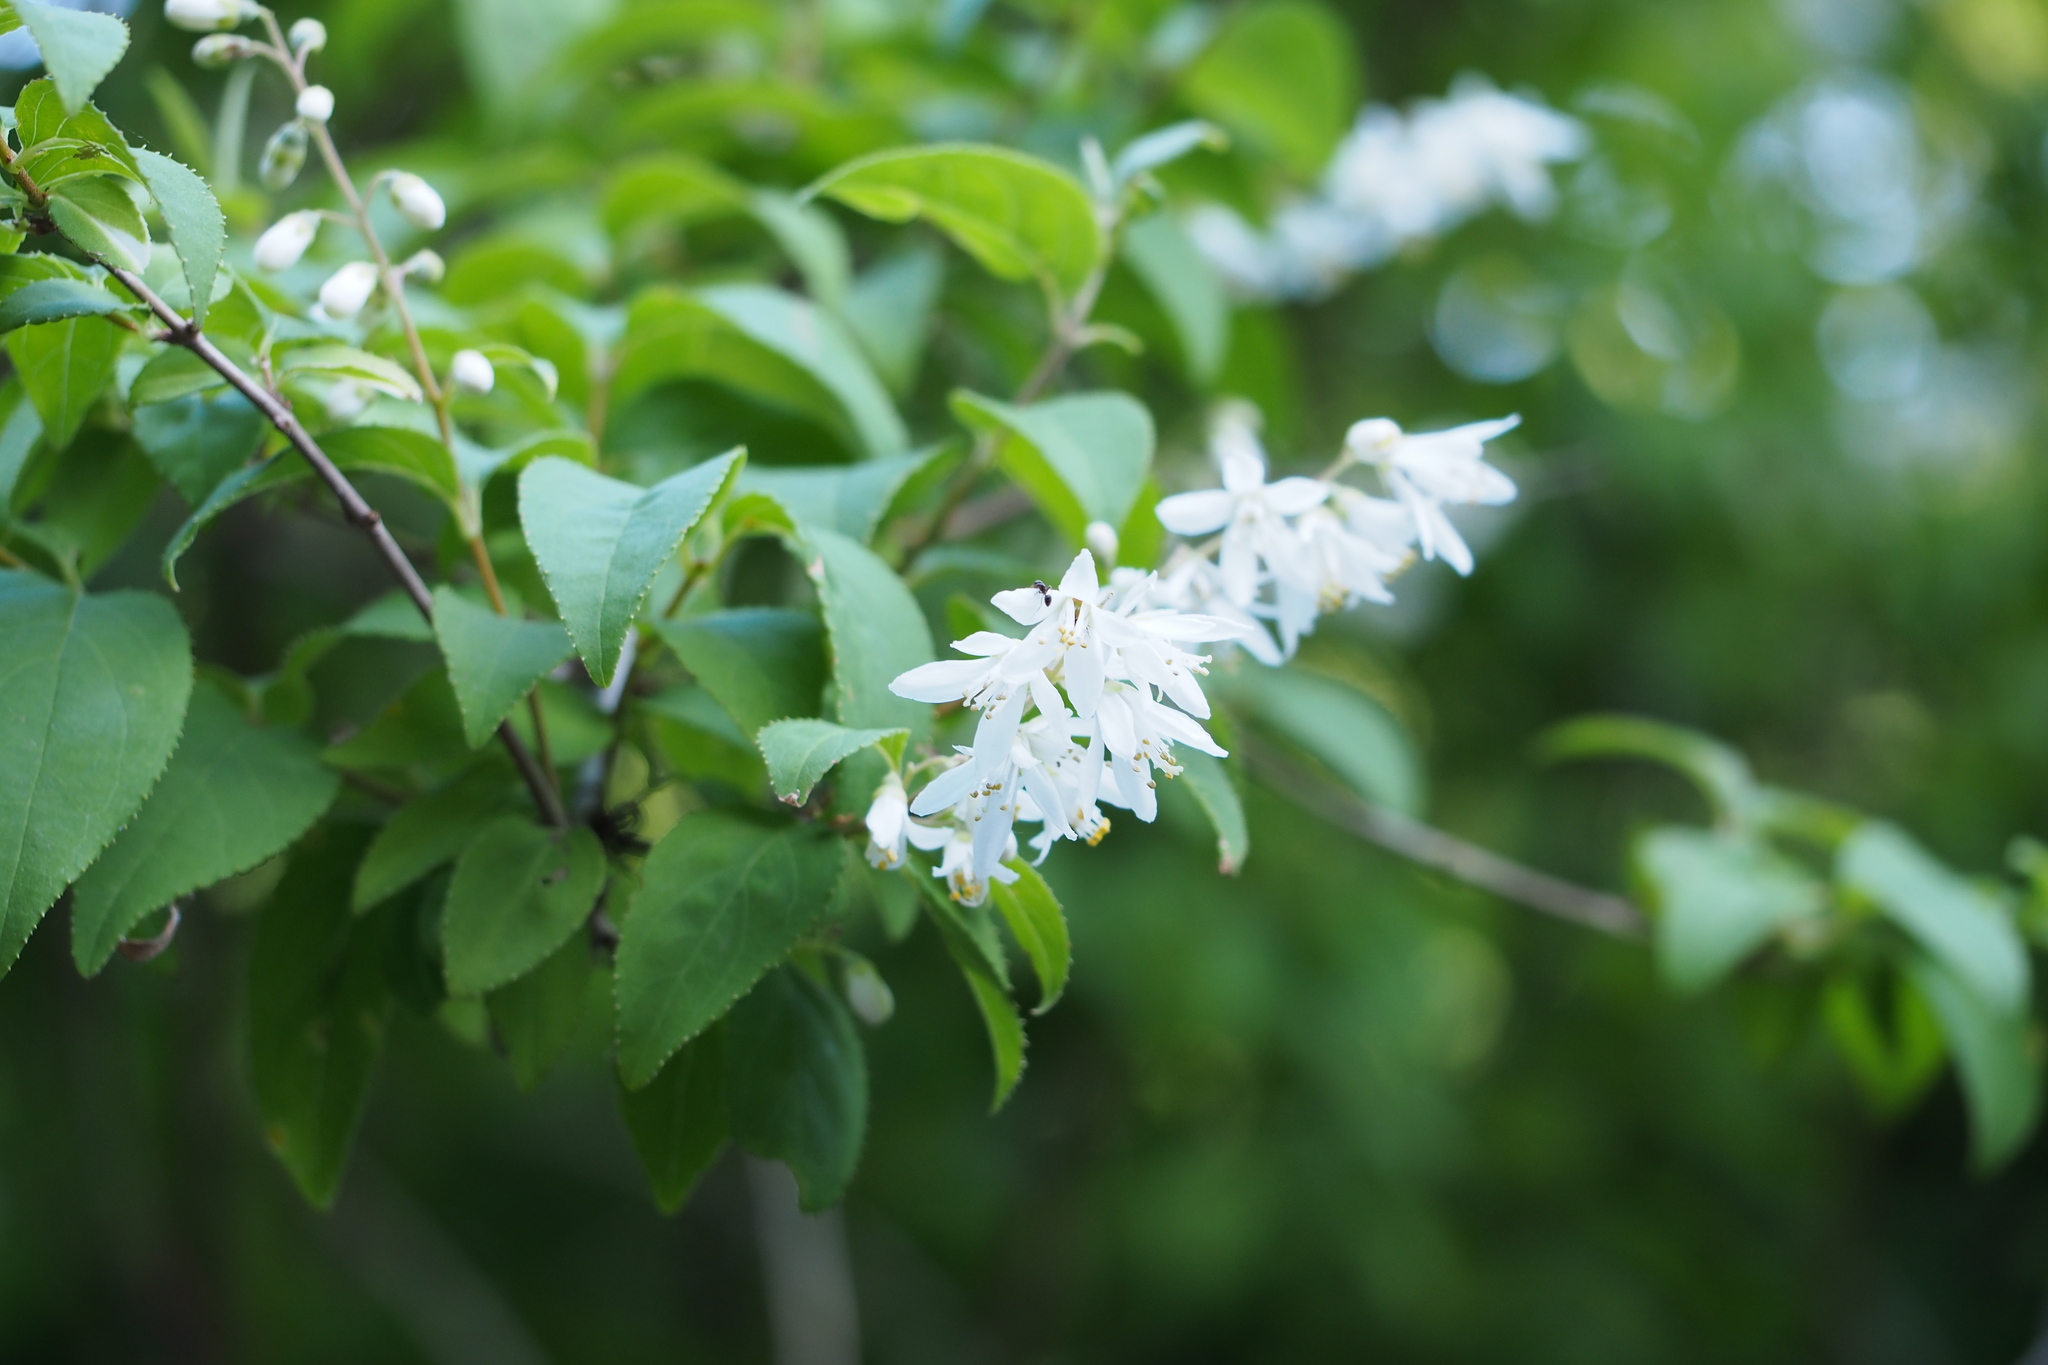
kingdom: Plantae
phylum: Tracheophyta
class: Magnoliopsida
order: Cornales
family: Hydrangeaceae
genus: Deutzia
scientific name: Deutzia crenata
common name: Deutzia
